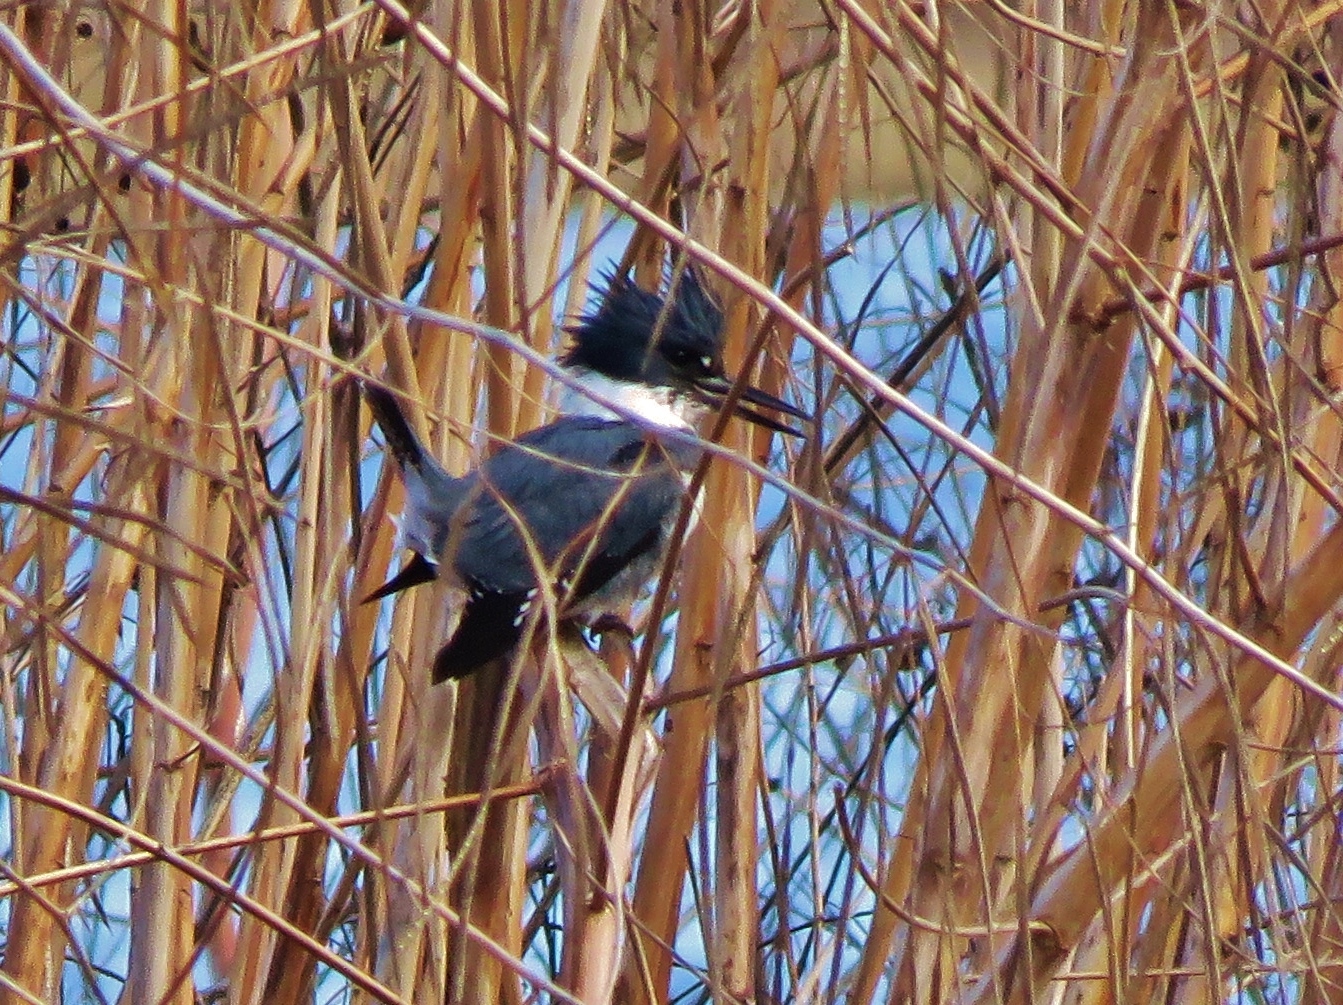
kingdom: Animalia
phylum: Chordata
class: Aves
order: Coraciiformes
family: Alcedinidae
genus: Megaceryle
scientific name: Megaceryle alcyon
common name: Belted kingfisher
